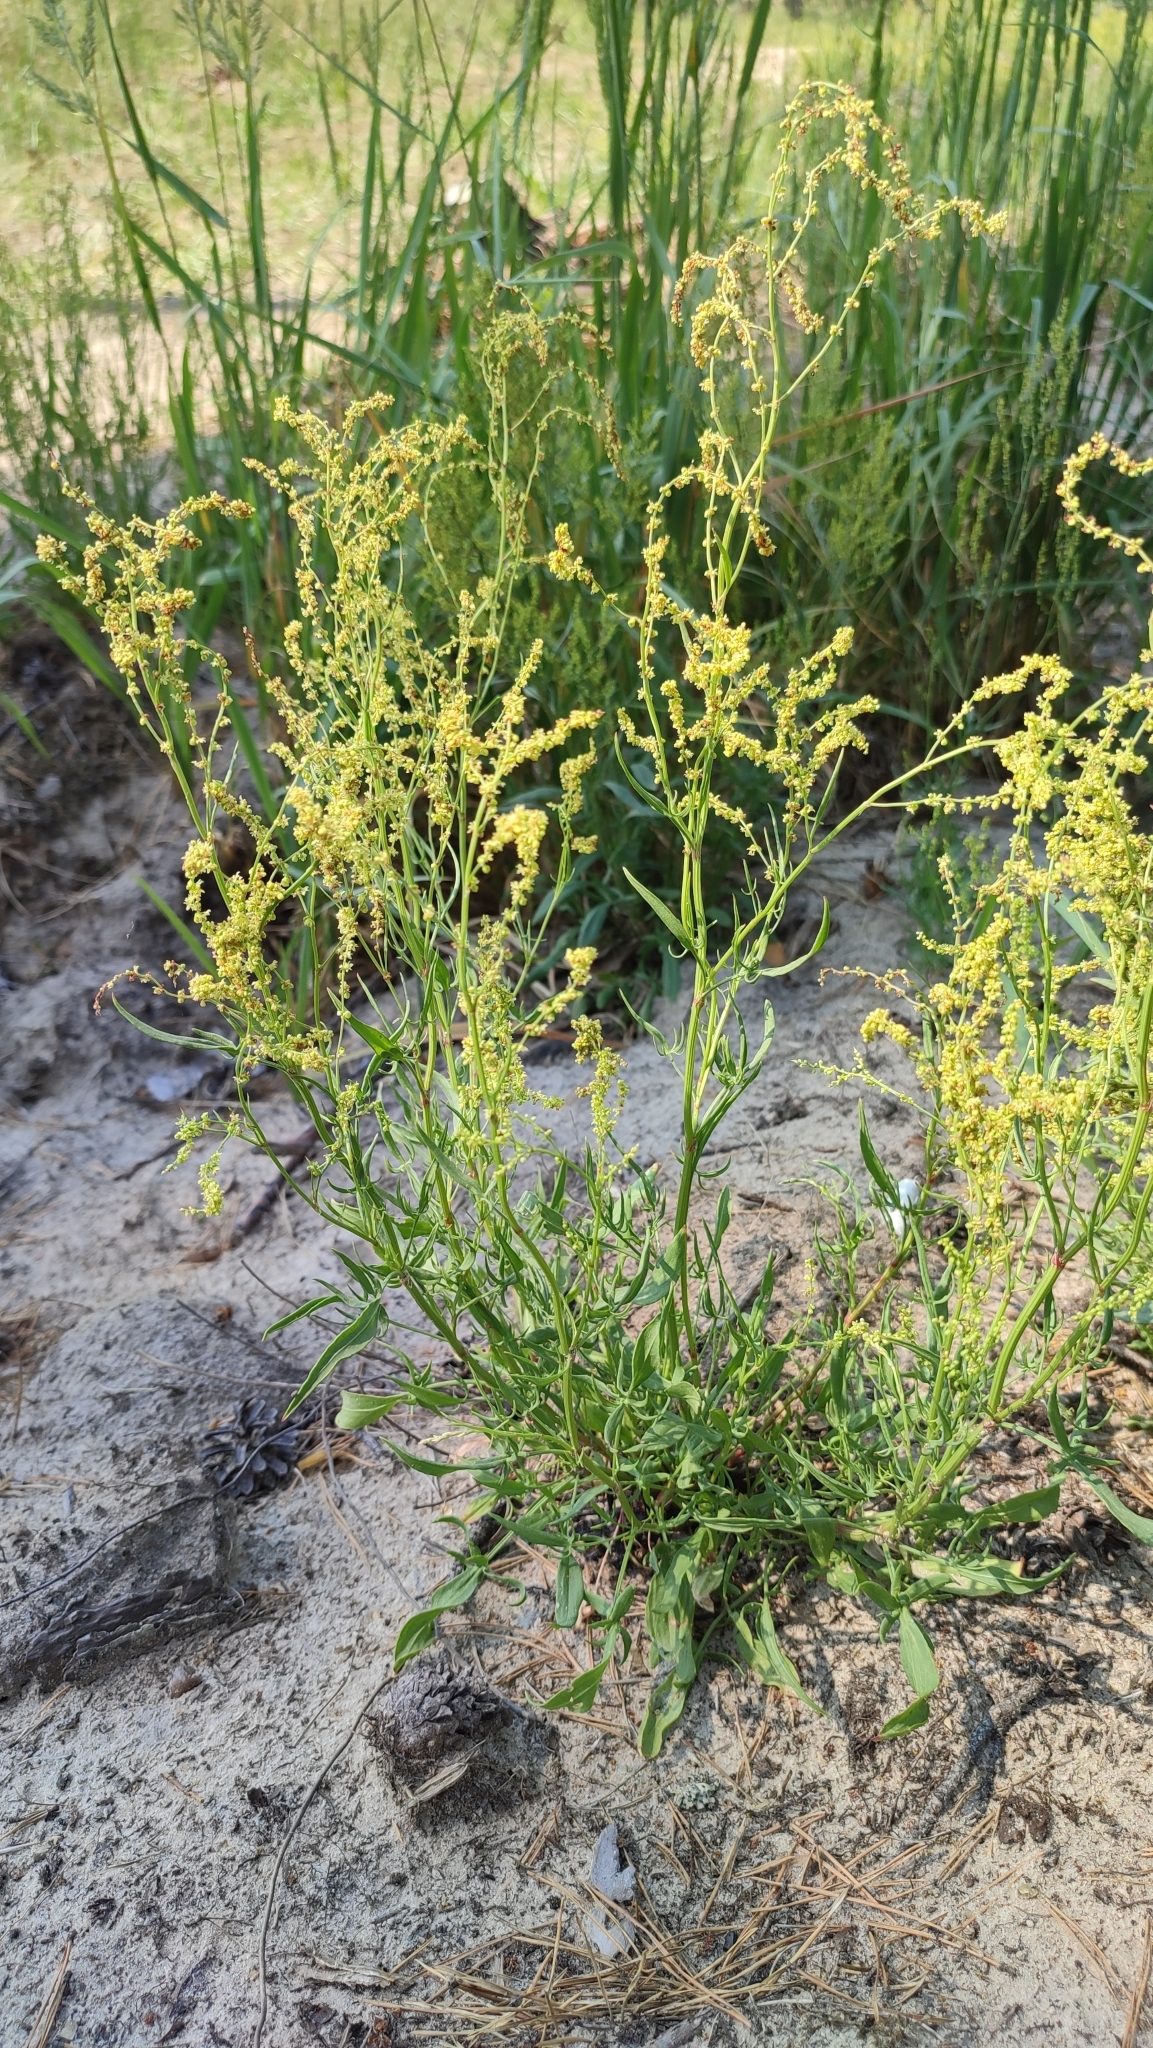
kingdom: Plantae
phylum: Tracheophyta
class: Magnoliopsida
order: Caryophyllales
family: Polygonaceae
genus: Rumex
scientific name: Rumex acetosella
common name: Common sheep sorrel
